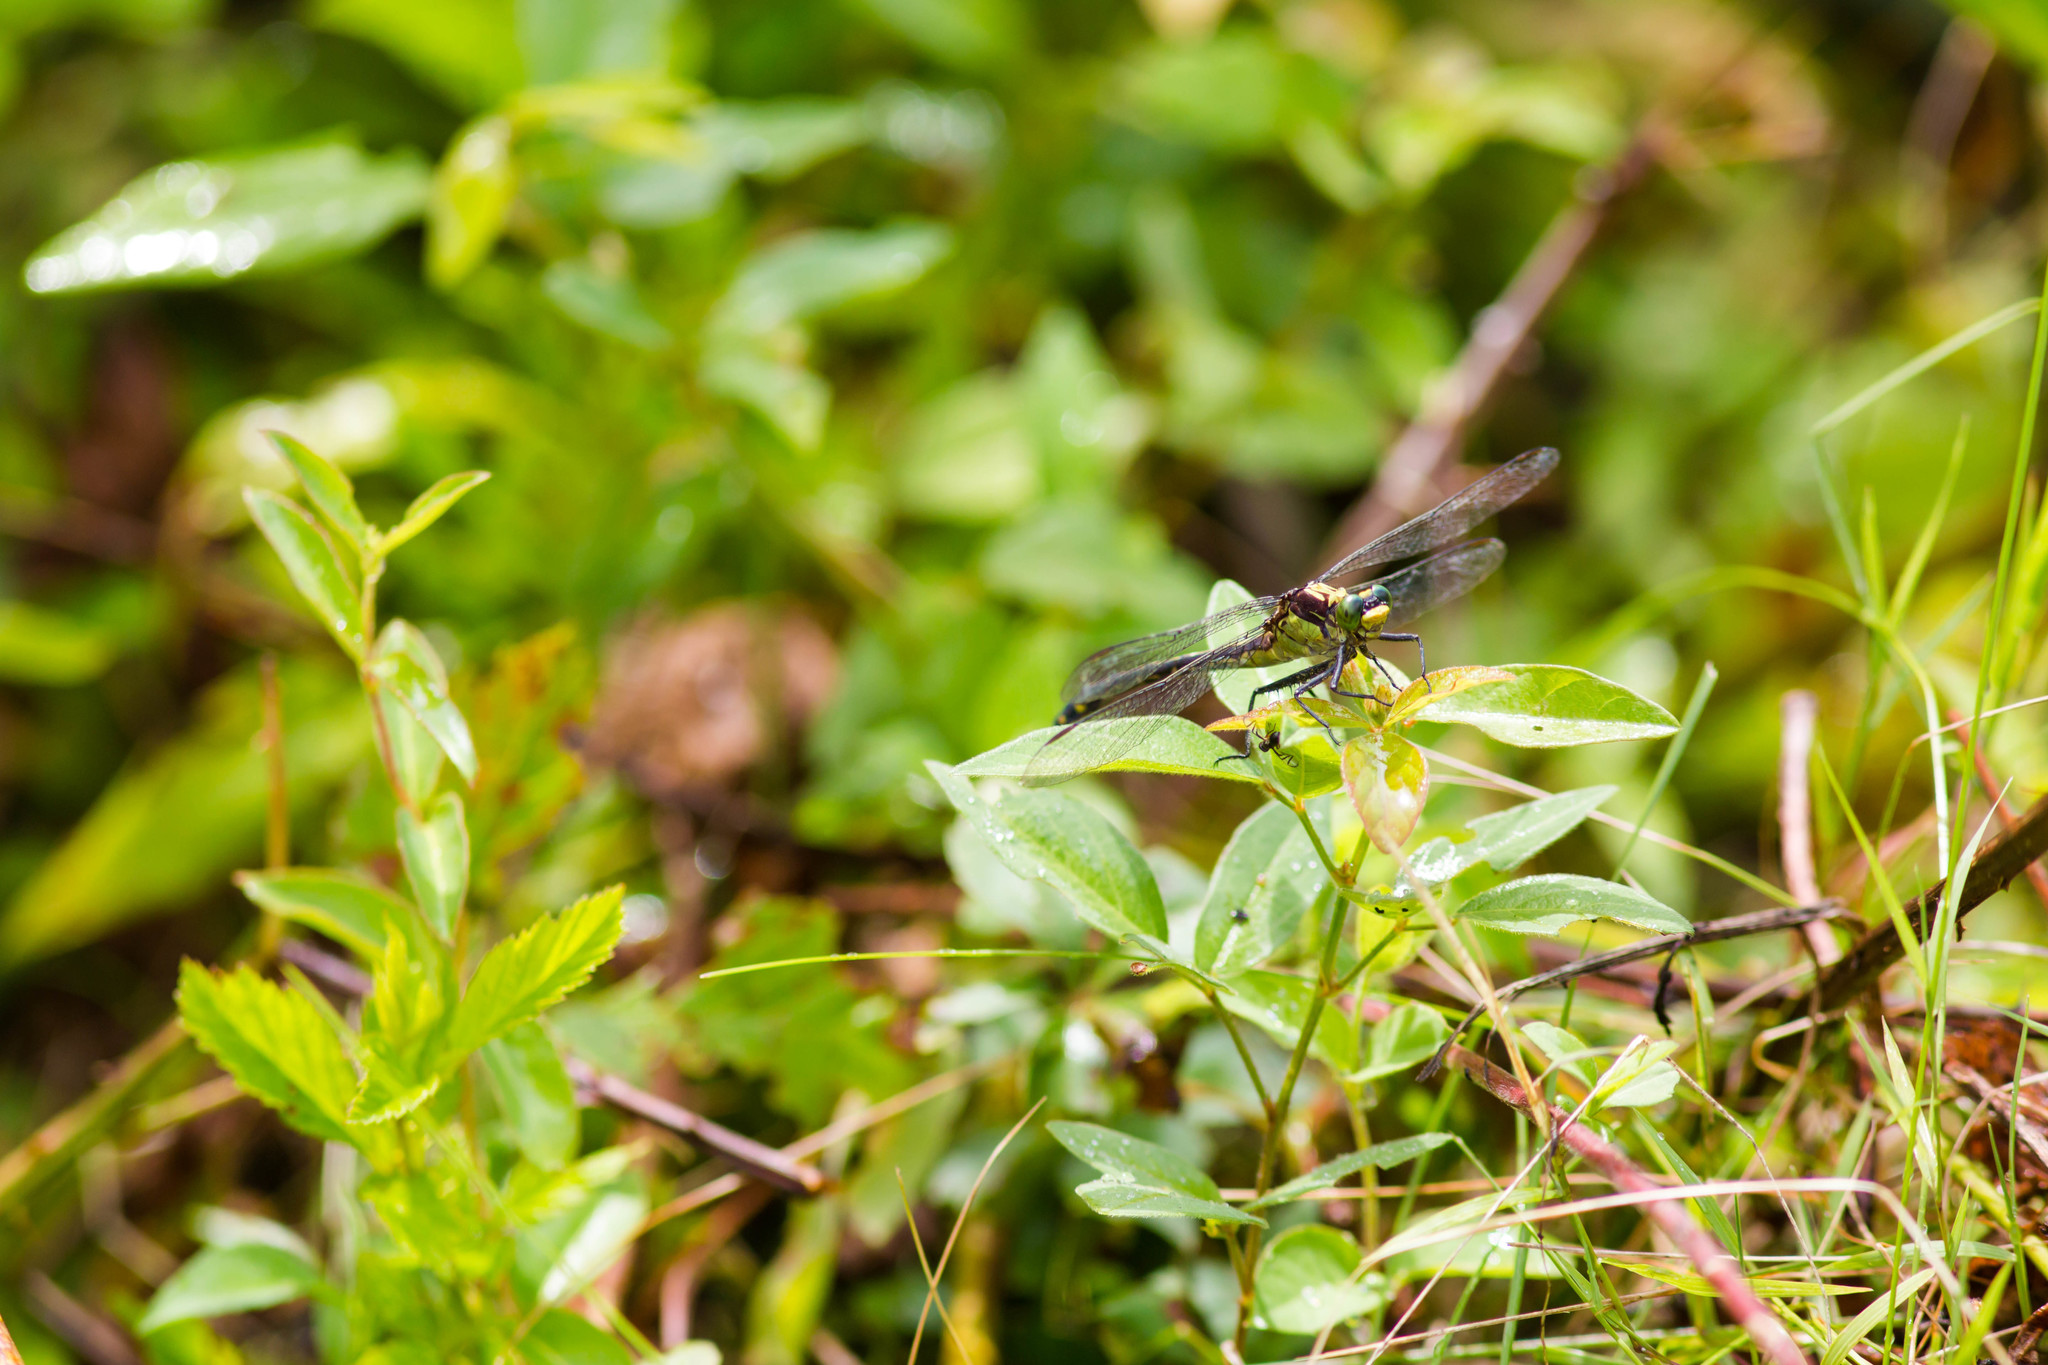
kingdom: Animalia
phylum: Arthropoda
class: Insecta
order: Odonata
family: Gomphidae
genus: Dromogomphus
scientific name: Dromogomphus spinosus
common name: Black-shouldered spinyleg
